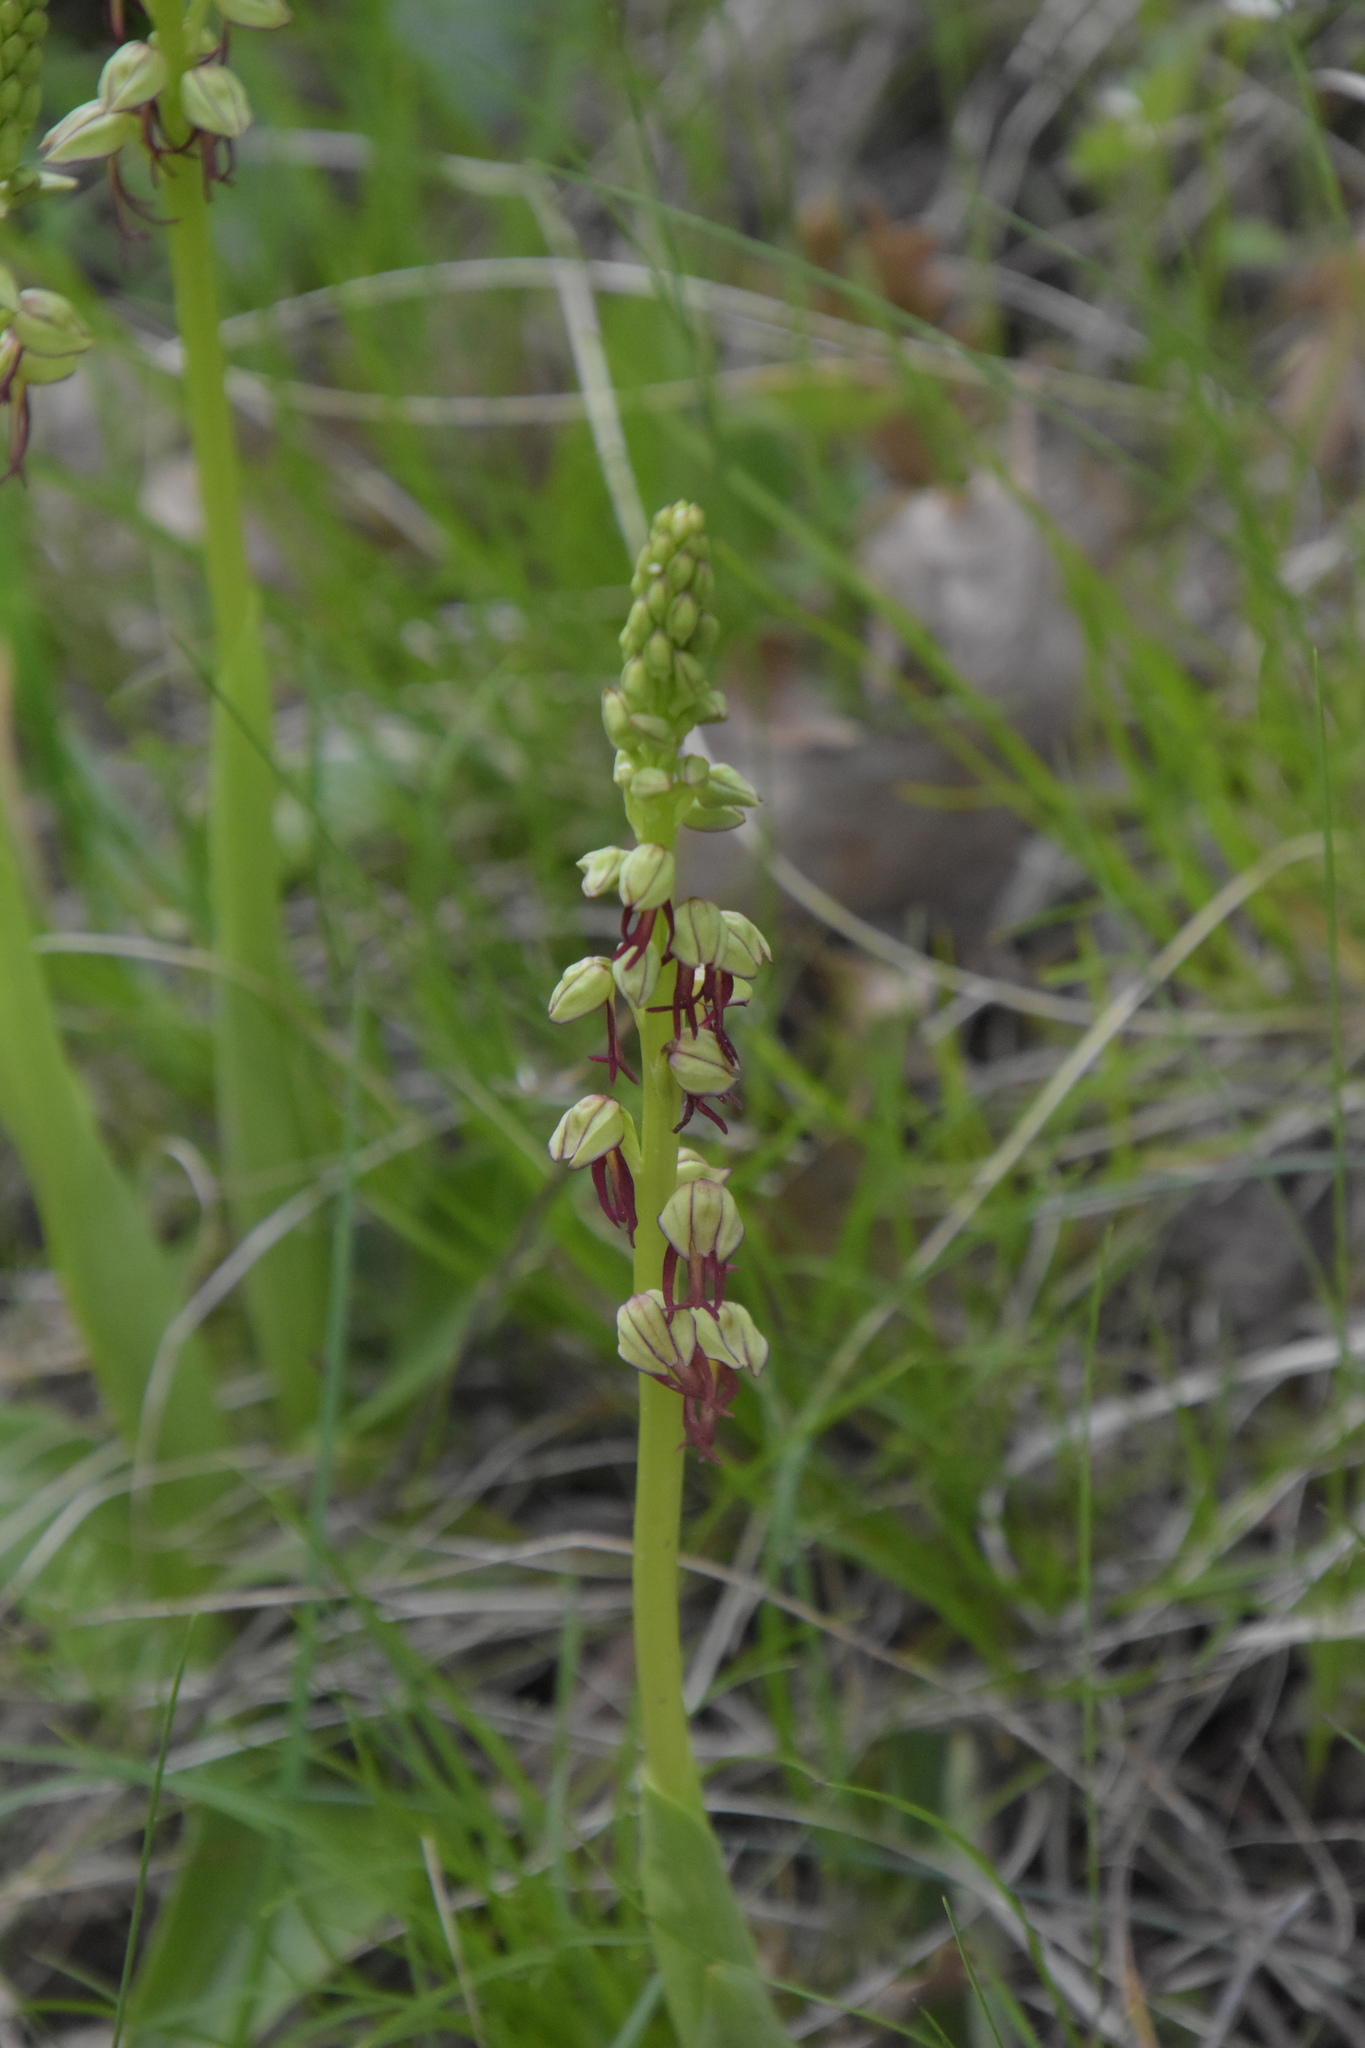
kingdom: Plantae
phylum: Tracheophyta
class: Liliopsida
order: Asparagales
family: Orchidaceae
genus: Orchis
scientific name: Orchis anthropophora
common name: Man orchid
